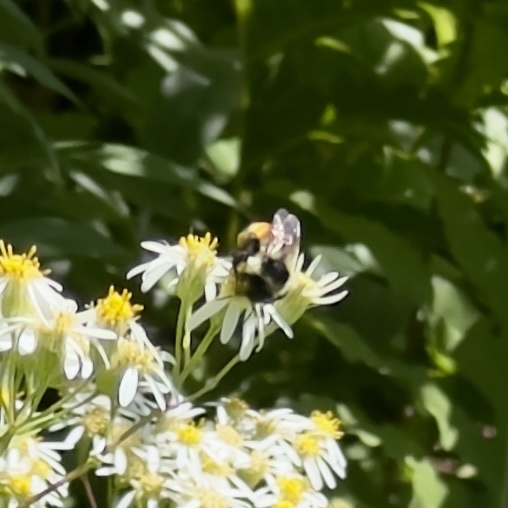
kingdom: Animalia
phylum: Arthropoda
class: Insecta
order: Hymenoptera
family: Apidae
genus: Bombus
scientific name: Bombus ternarius
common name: Tri-colored bumble bee
